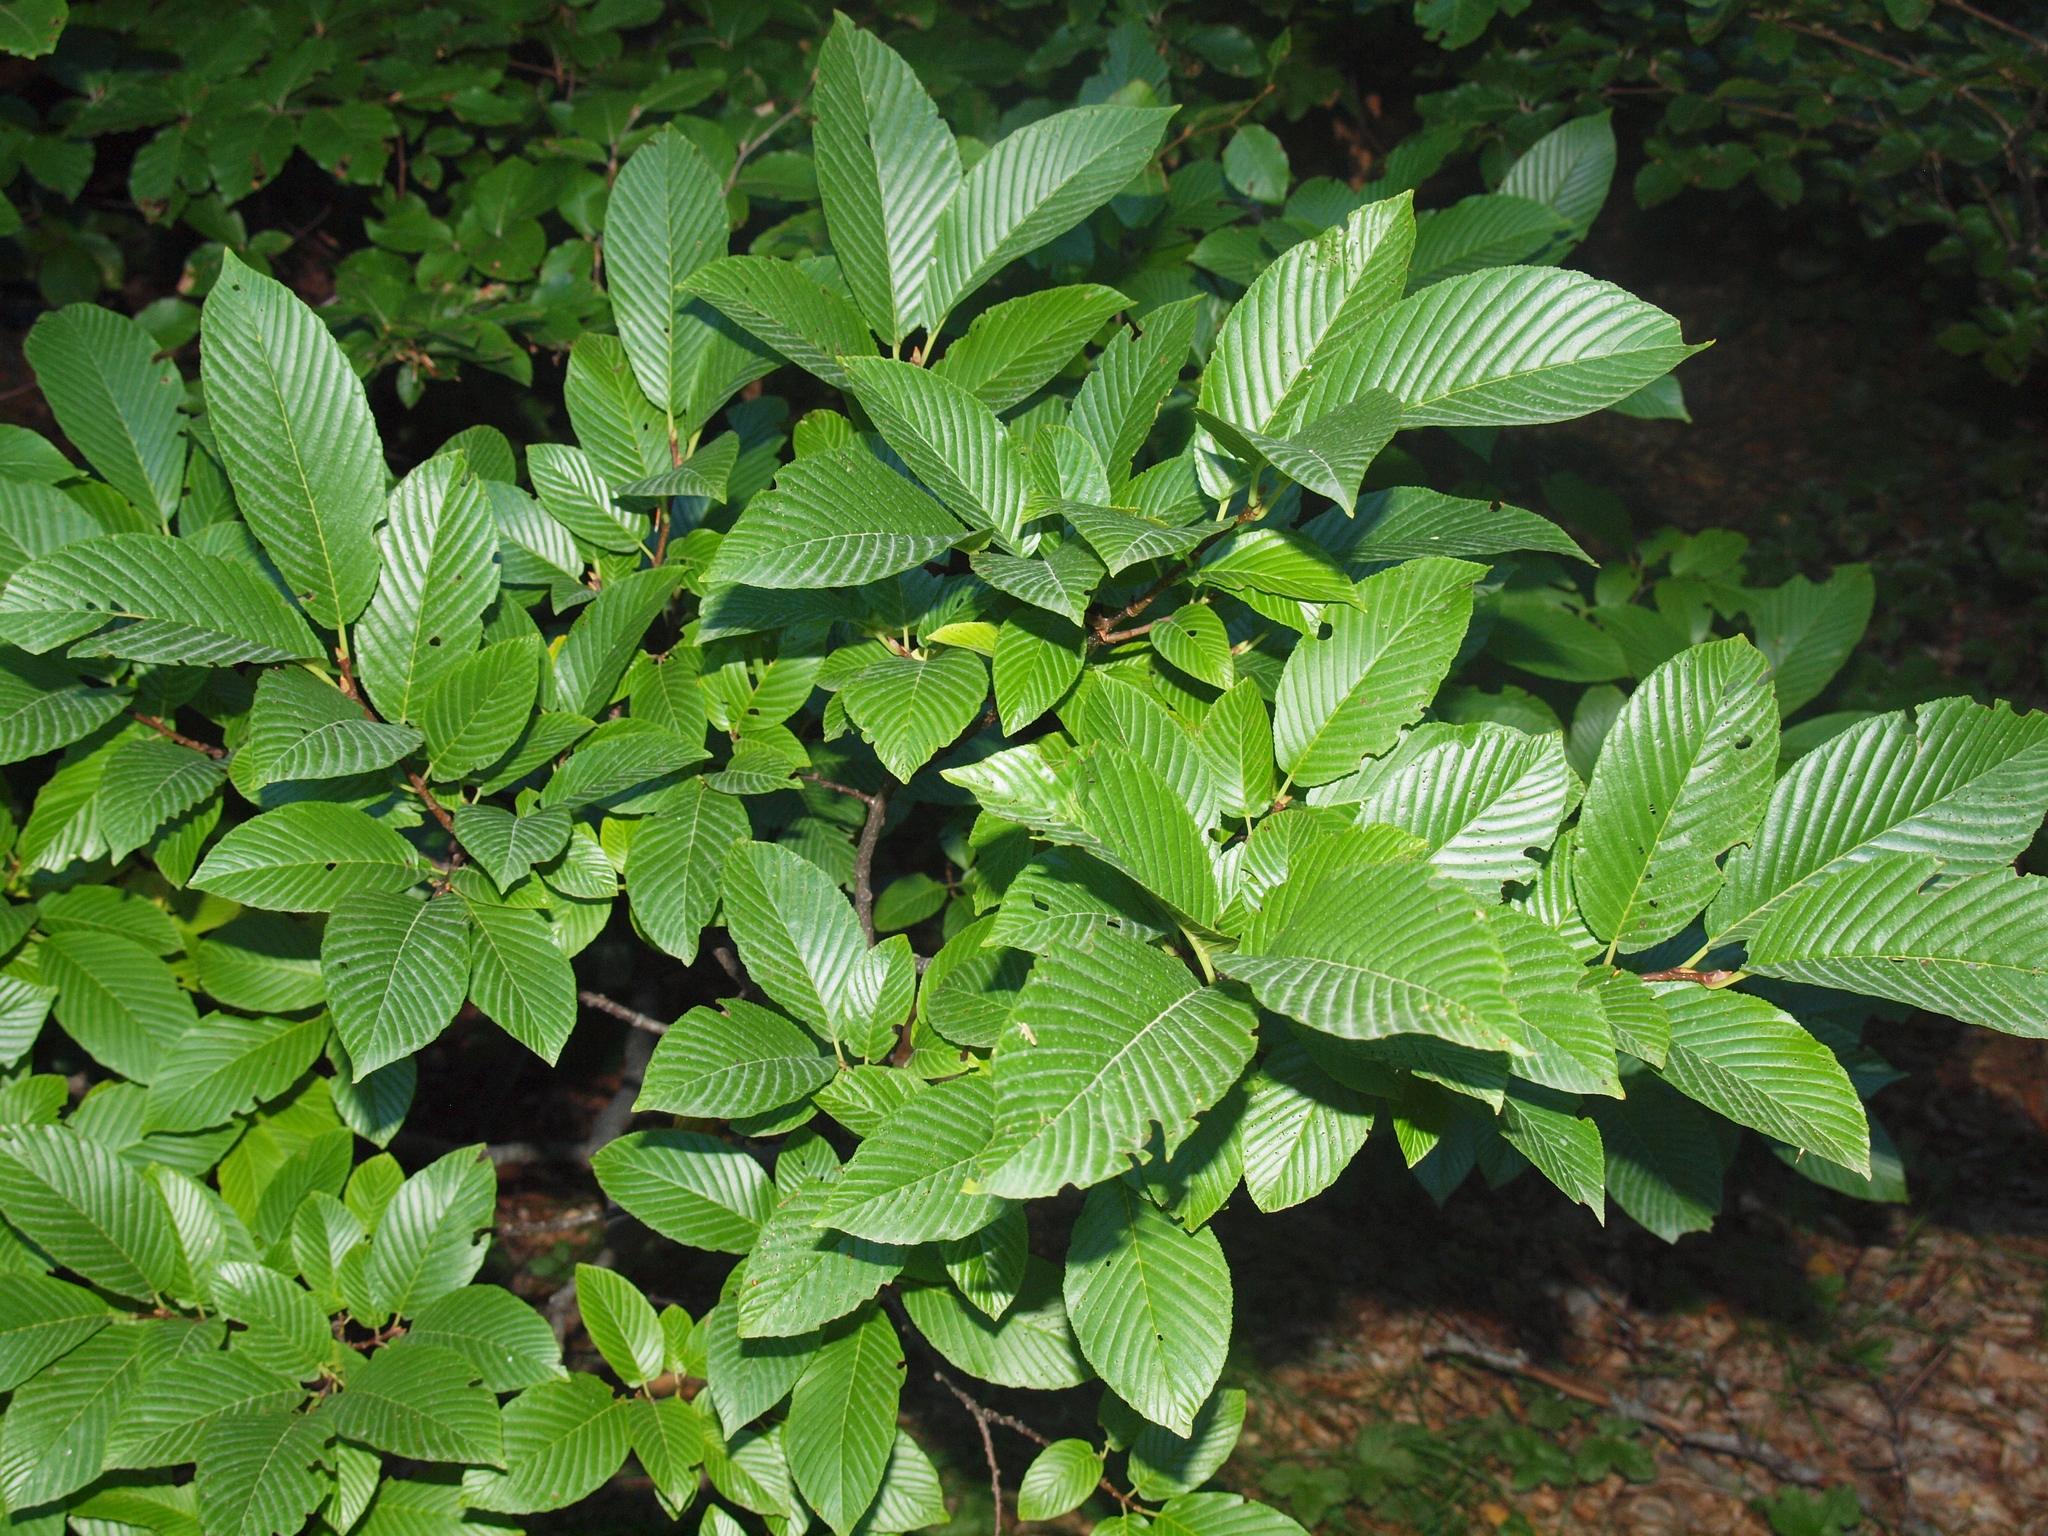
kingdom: Plantae
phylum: Tracheophyta
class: Magnoliopsida
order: Rosales
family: Rhamnaceae
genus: Atadinus
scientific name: Atadinus fallax
